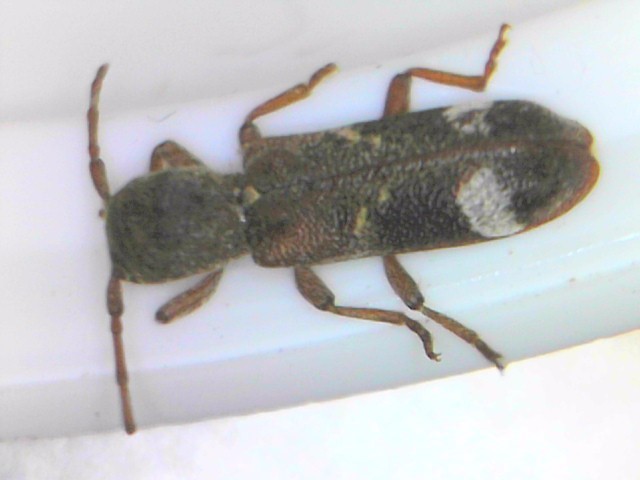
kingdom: Animalia
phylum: Arthropoda
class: Insecta
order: Coleoptera
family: Cerambycidae
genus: Psenocerus
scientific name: Psenocerus supernotatus
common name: Currant-tip borer
